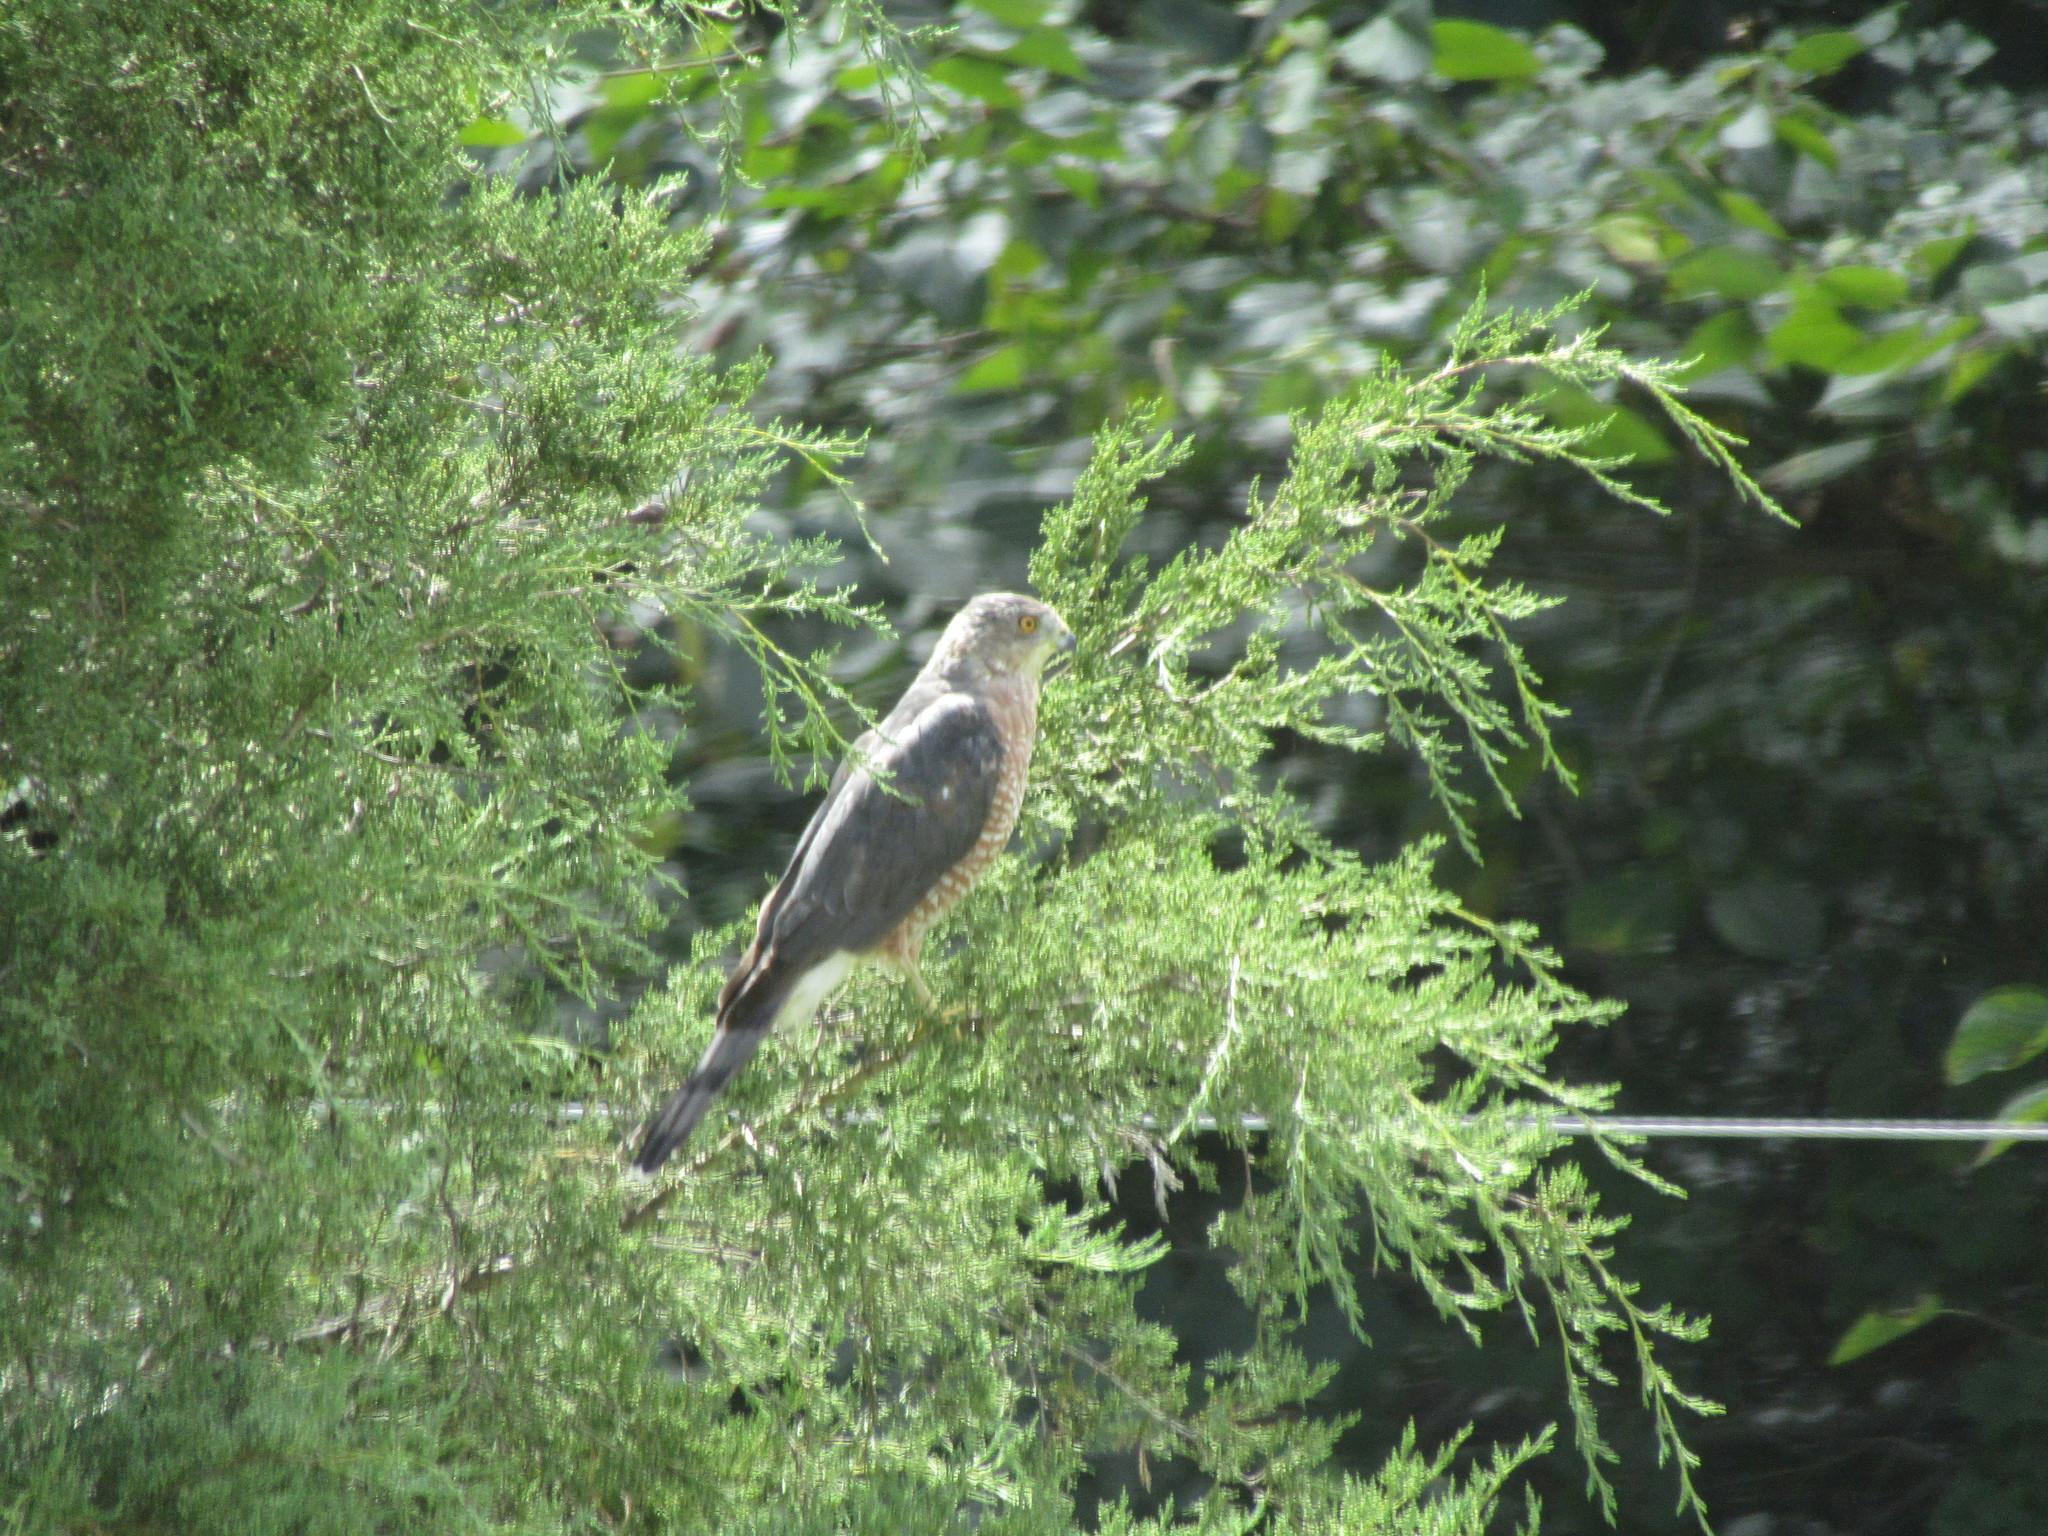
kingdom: Animalia
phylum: Chordata
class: Aves
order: Accipitriformes
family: Accipitridae
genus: Accipiter
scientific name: Accipiter cooperii
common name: Cooper's hawk
